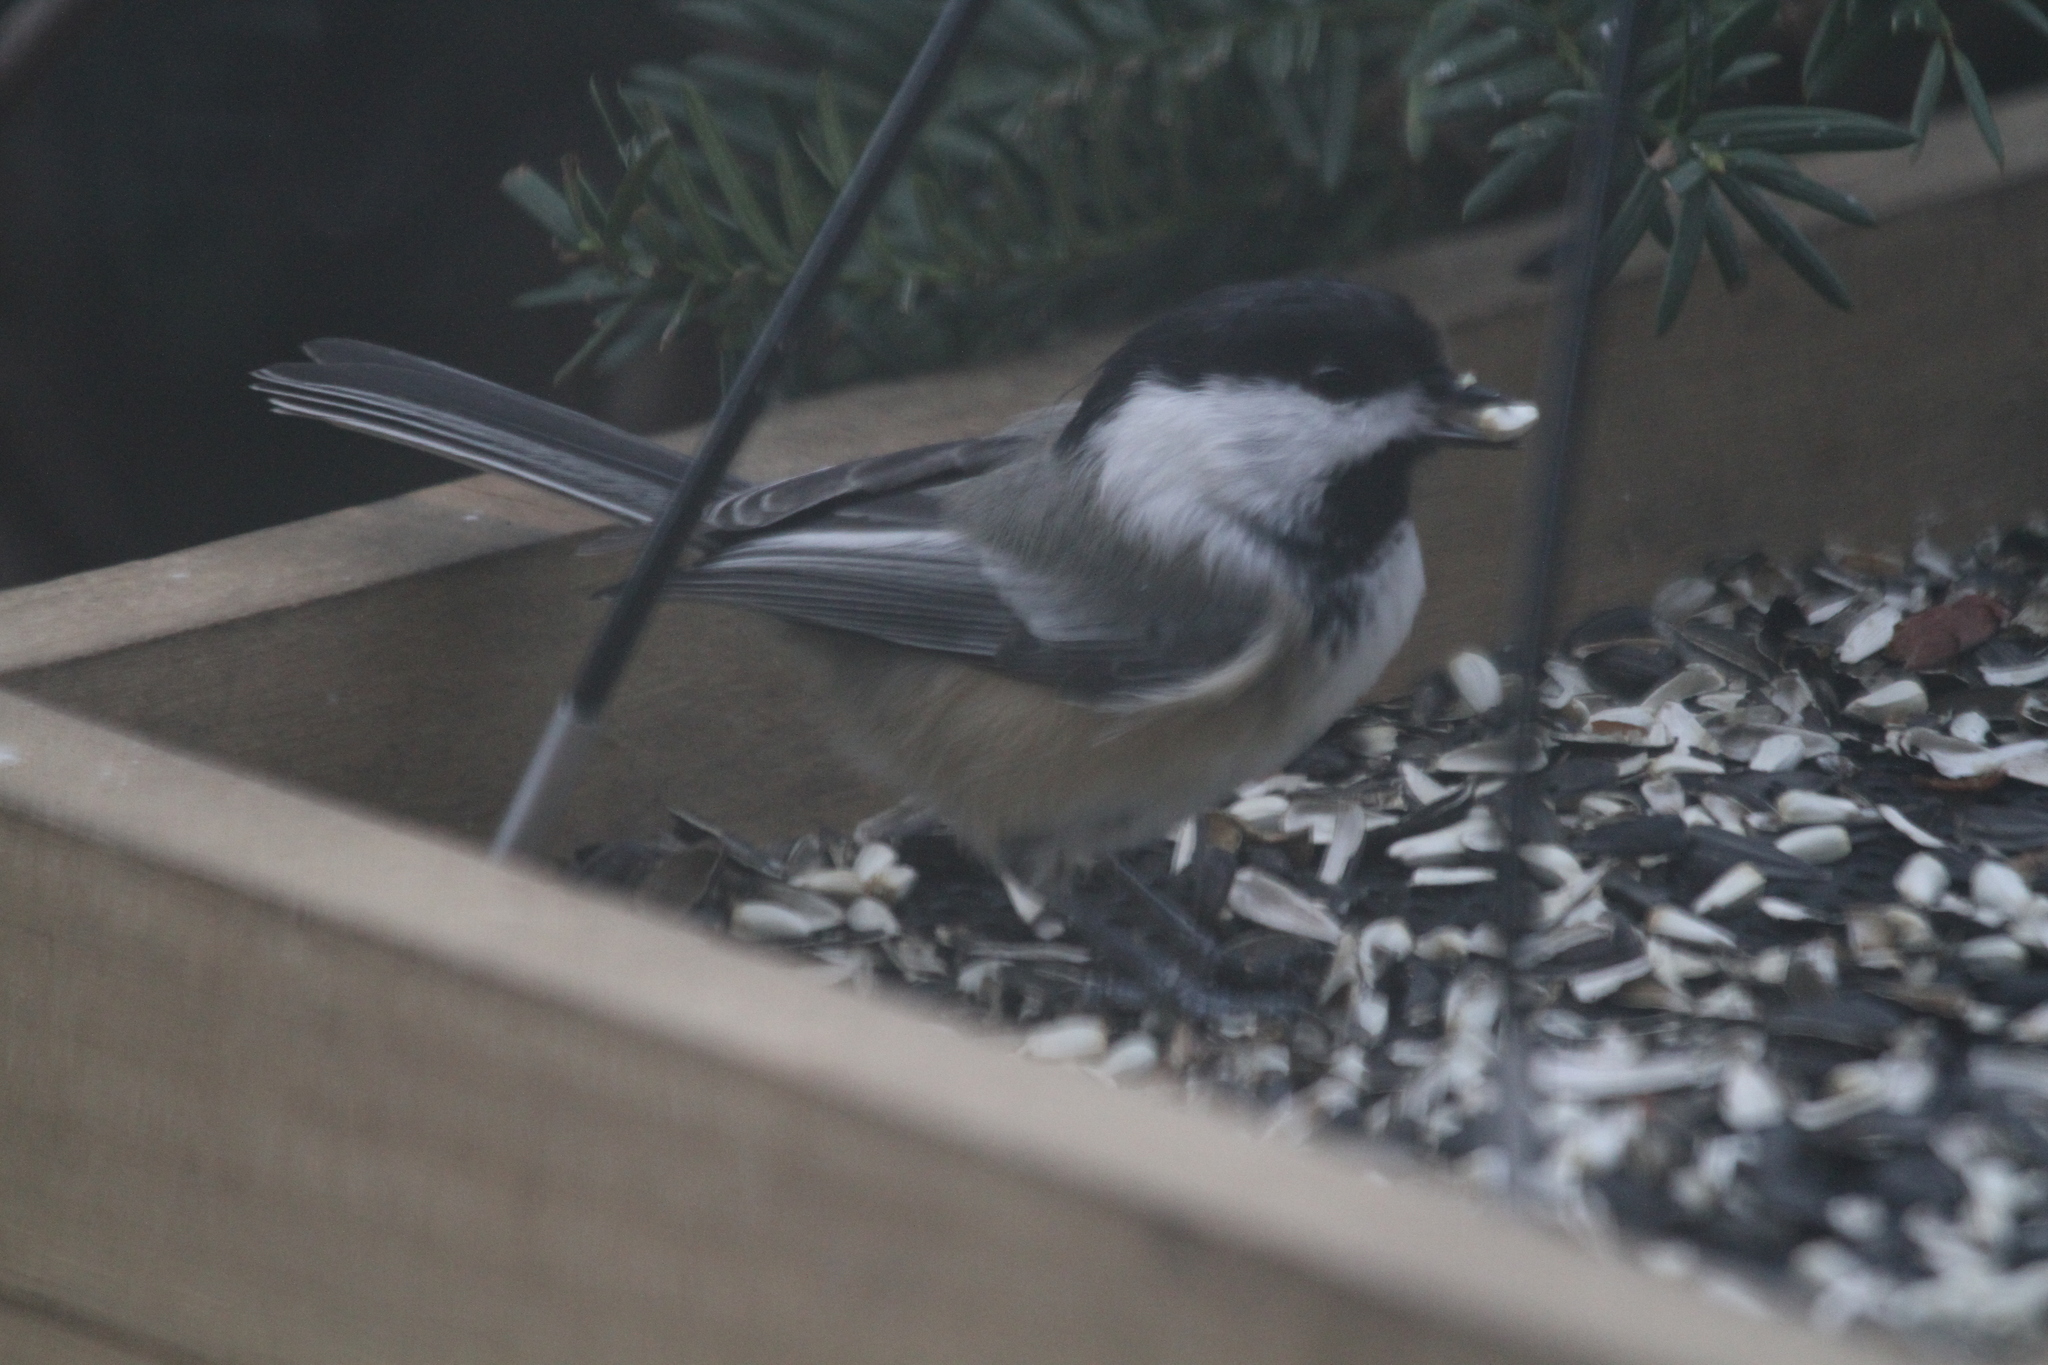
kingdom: Animalia
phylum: Chordata
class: Aves
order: Passeriformes
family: Paridae
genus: Poecile
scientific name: Poecile atricapillus
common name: Black-capped chickadee
